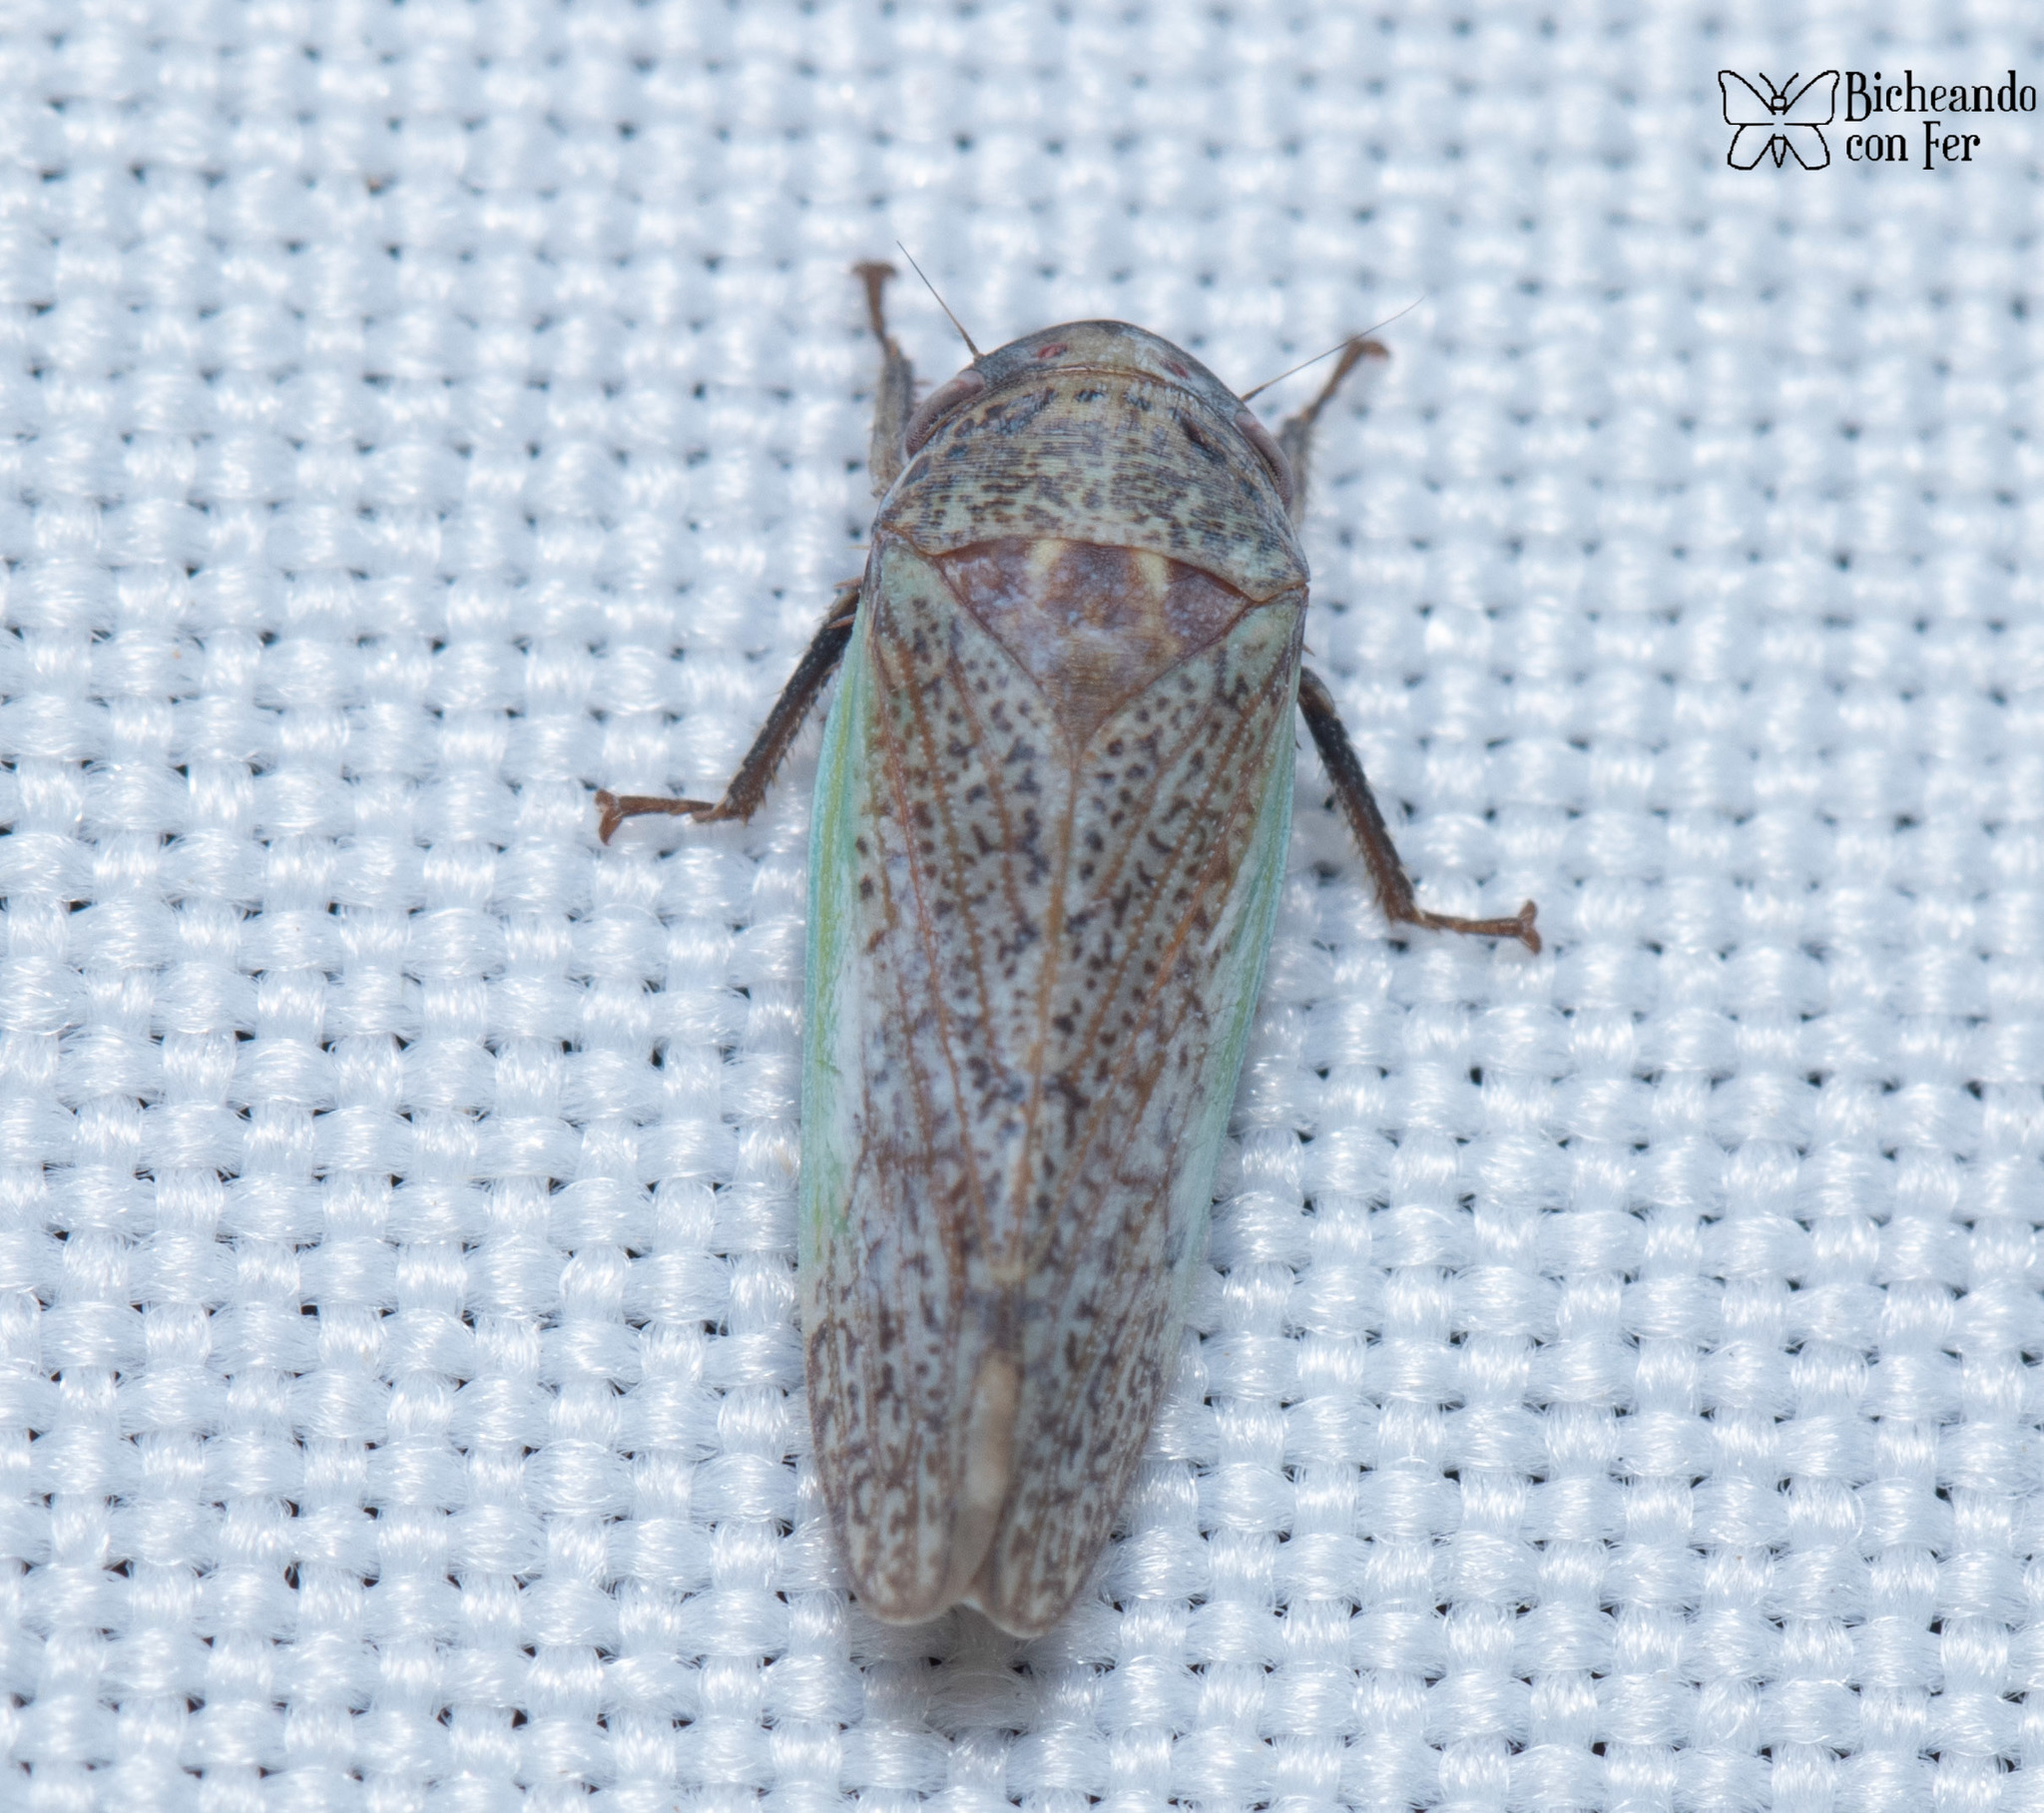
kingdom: Animalia
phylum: Arthropoda
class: Insecta
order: Hemiptera
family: Cicadellidae
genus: Hamana
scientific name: Hamana gelbata
